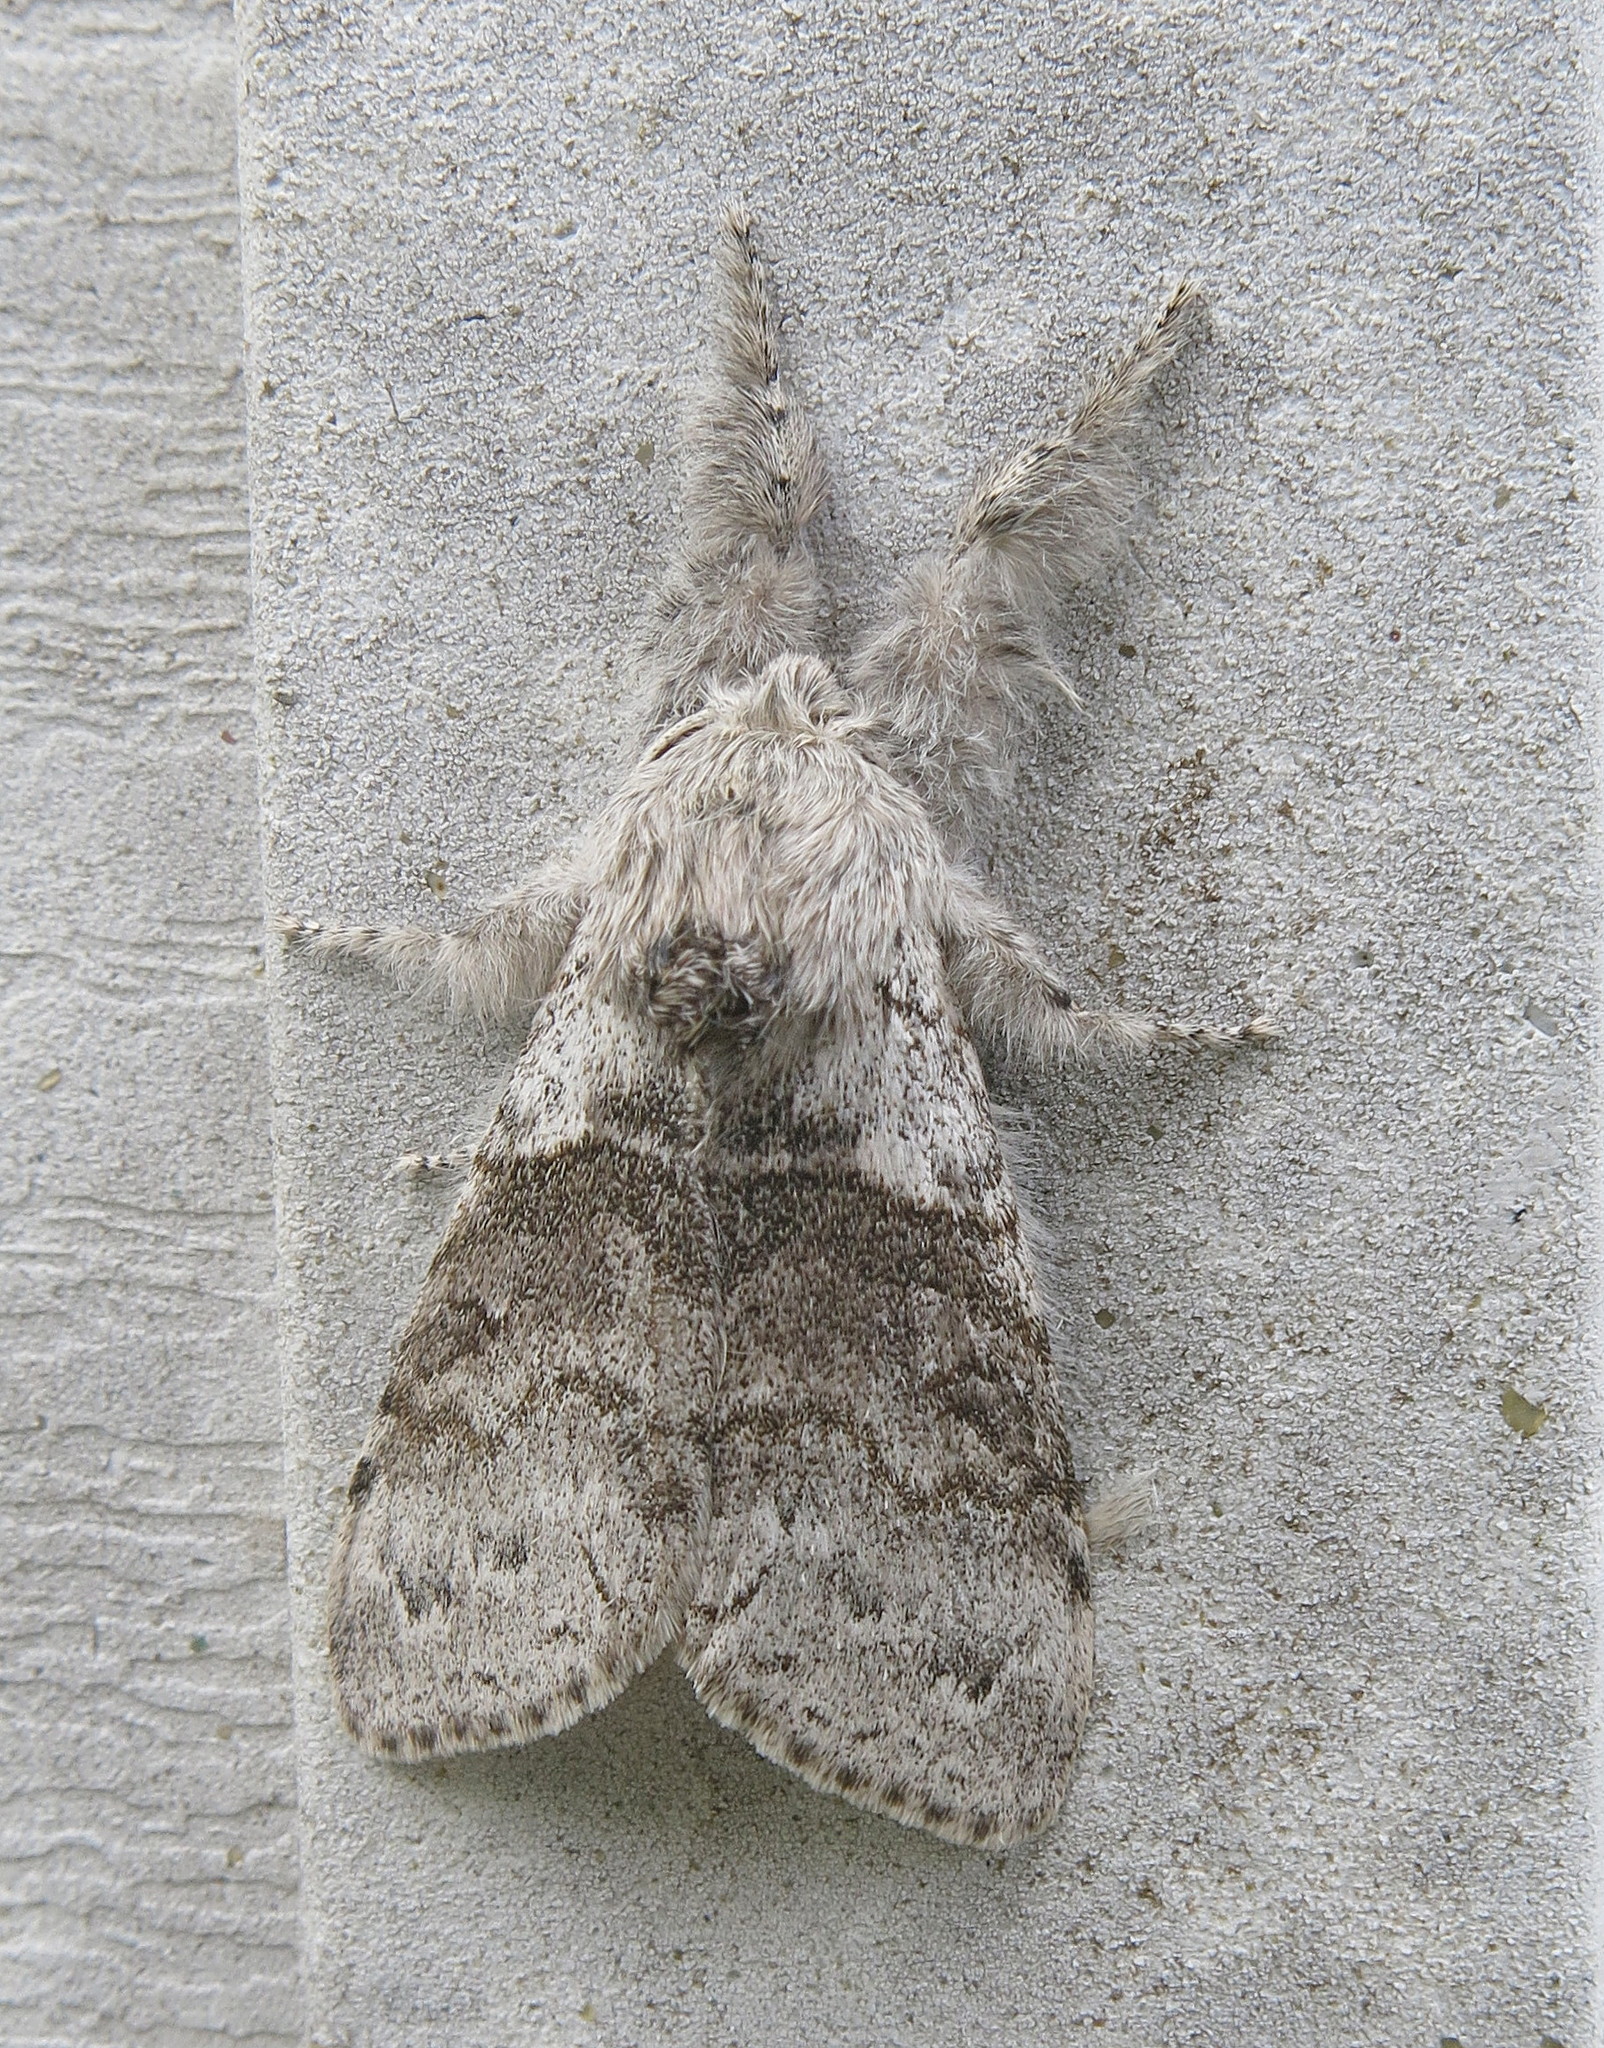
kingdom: Animalia
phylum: Arthropoda
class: Insecta
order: Lepidoptera
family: Erebidae
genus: Calliteara
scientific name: Calliteara pudibunda
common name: Pale tussock
